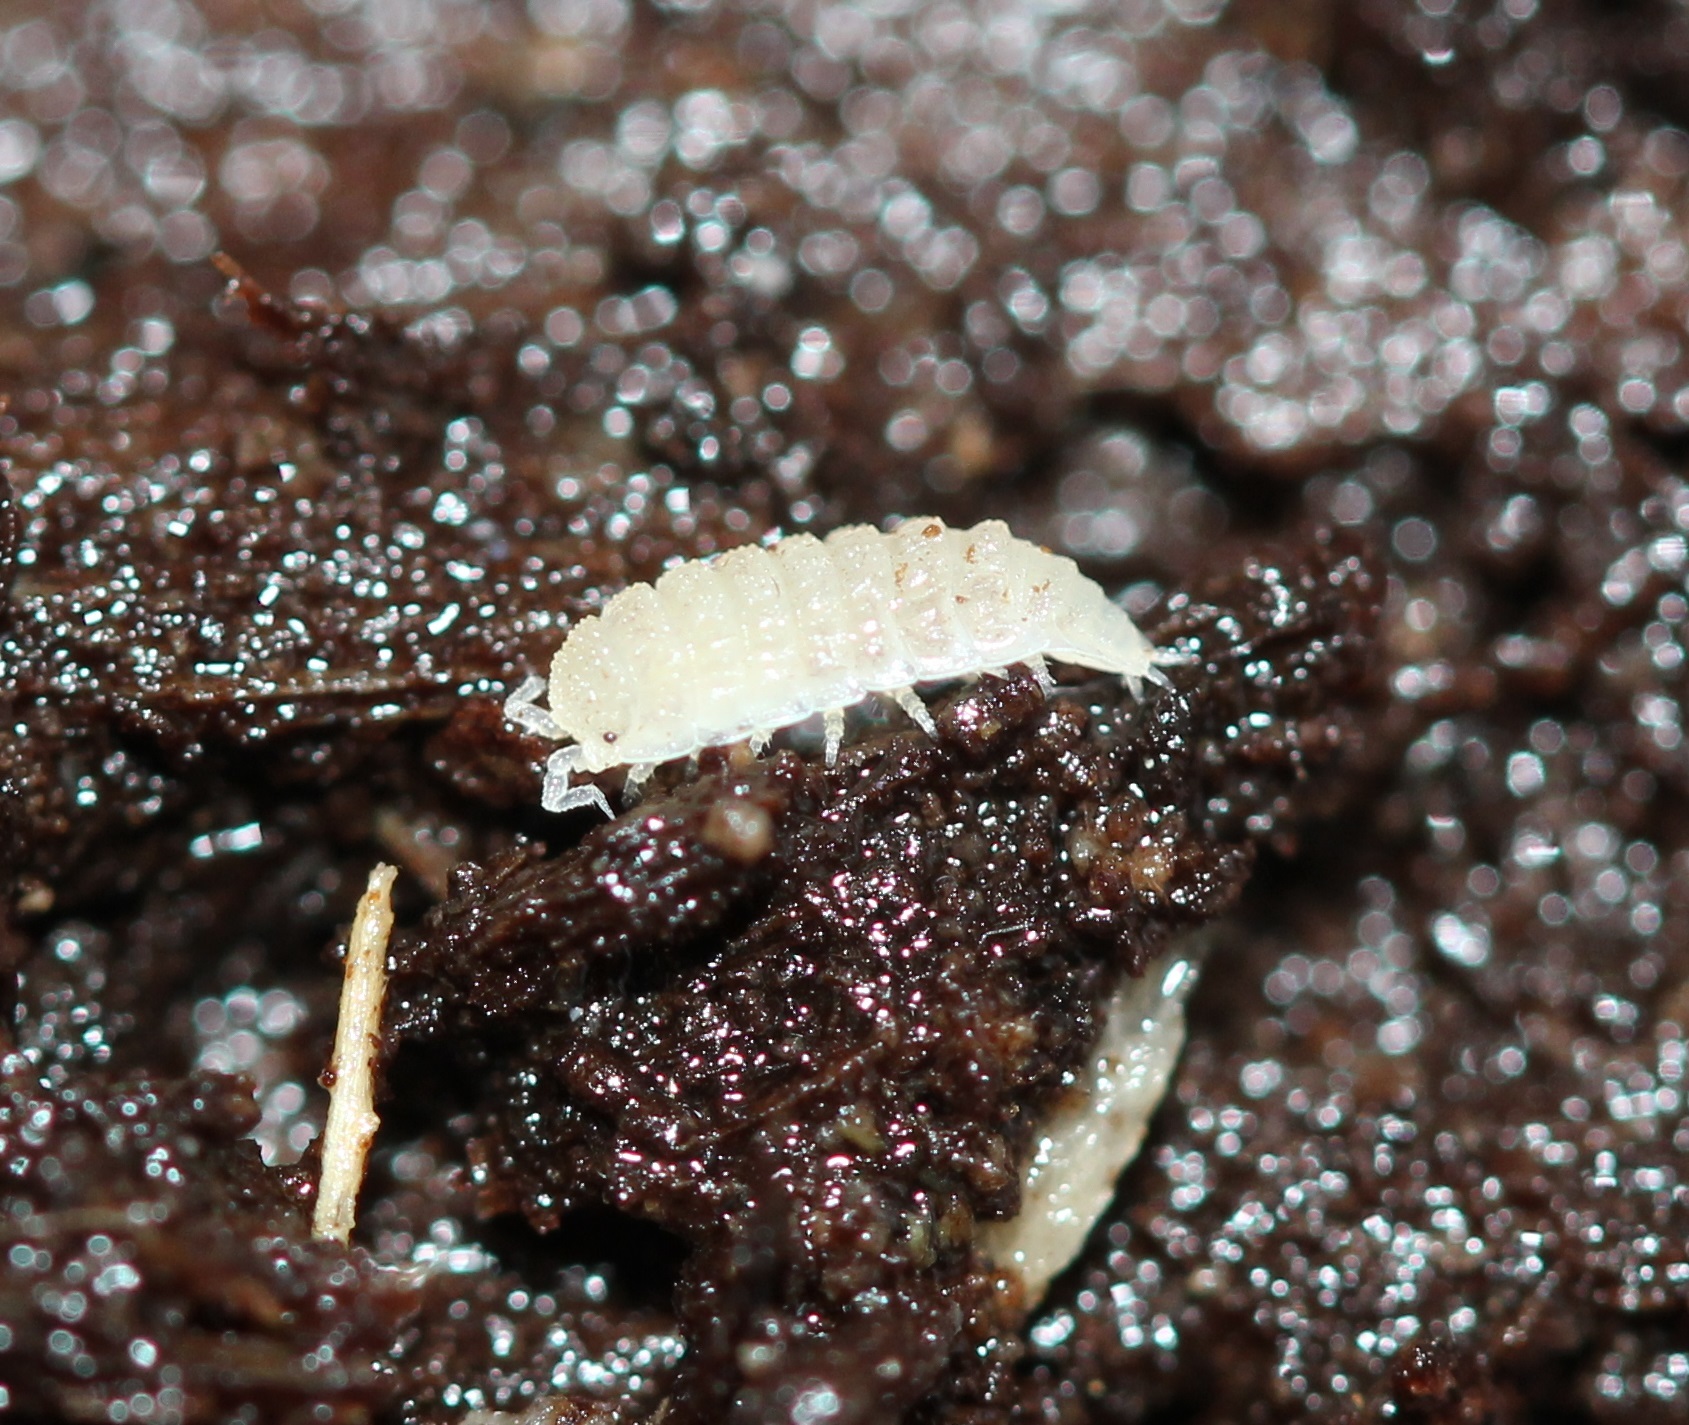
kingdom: Animalia
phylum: Arthropoda
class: Malacostraca
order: Isopoda
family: Trichoniscidae
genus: Haplophthalmus
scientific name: Haplophthalmus danicus
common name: Pillbug
